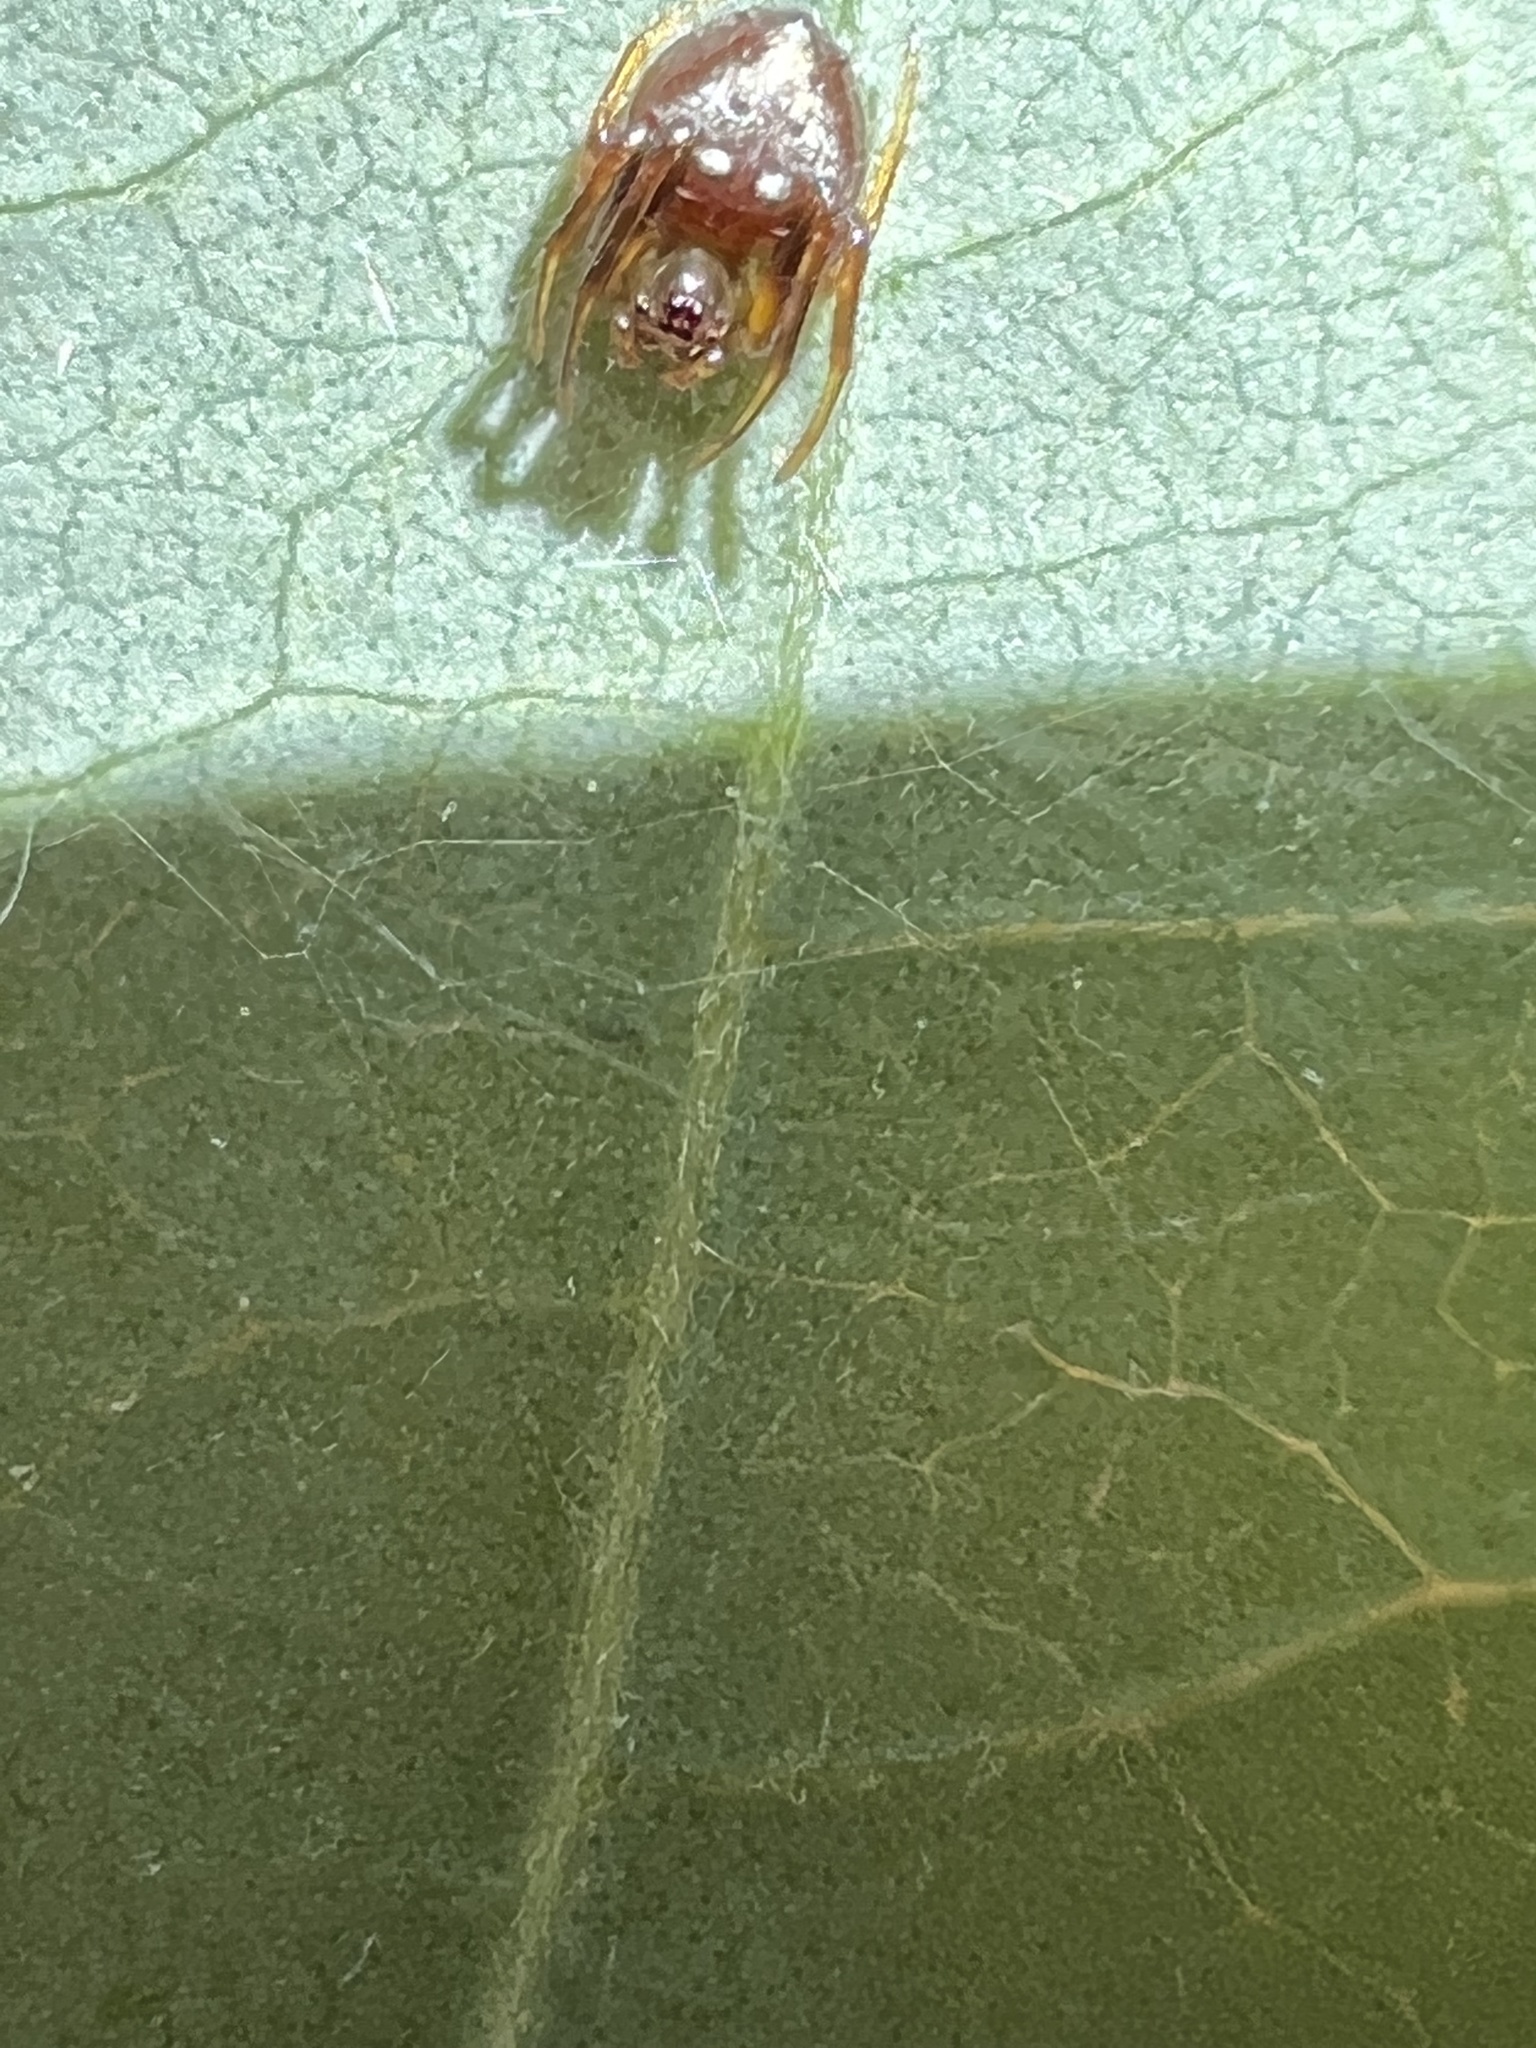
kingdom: Animalia
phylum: Arthropoda
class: Arachnida
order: Araneae
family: Araneidae
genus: Verrucosa
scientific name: Verrucosa arenata
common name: Orb weavers
